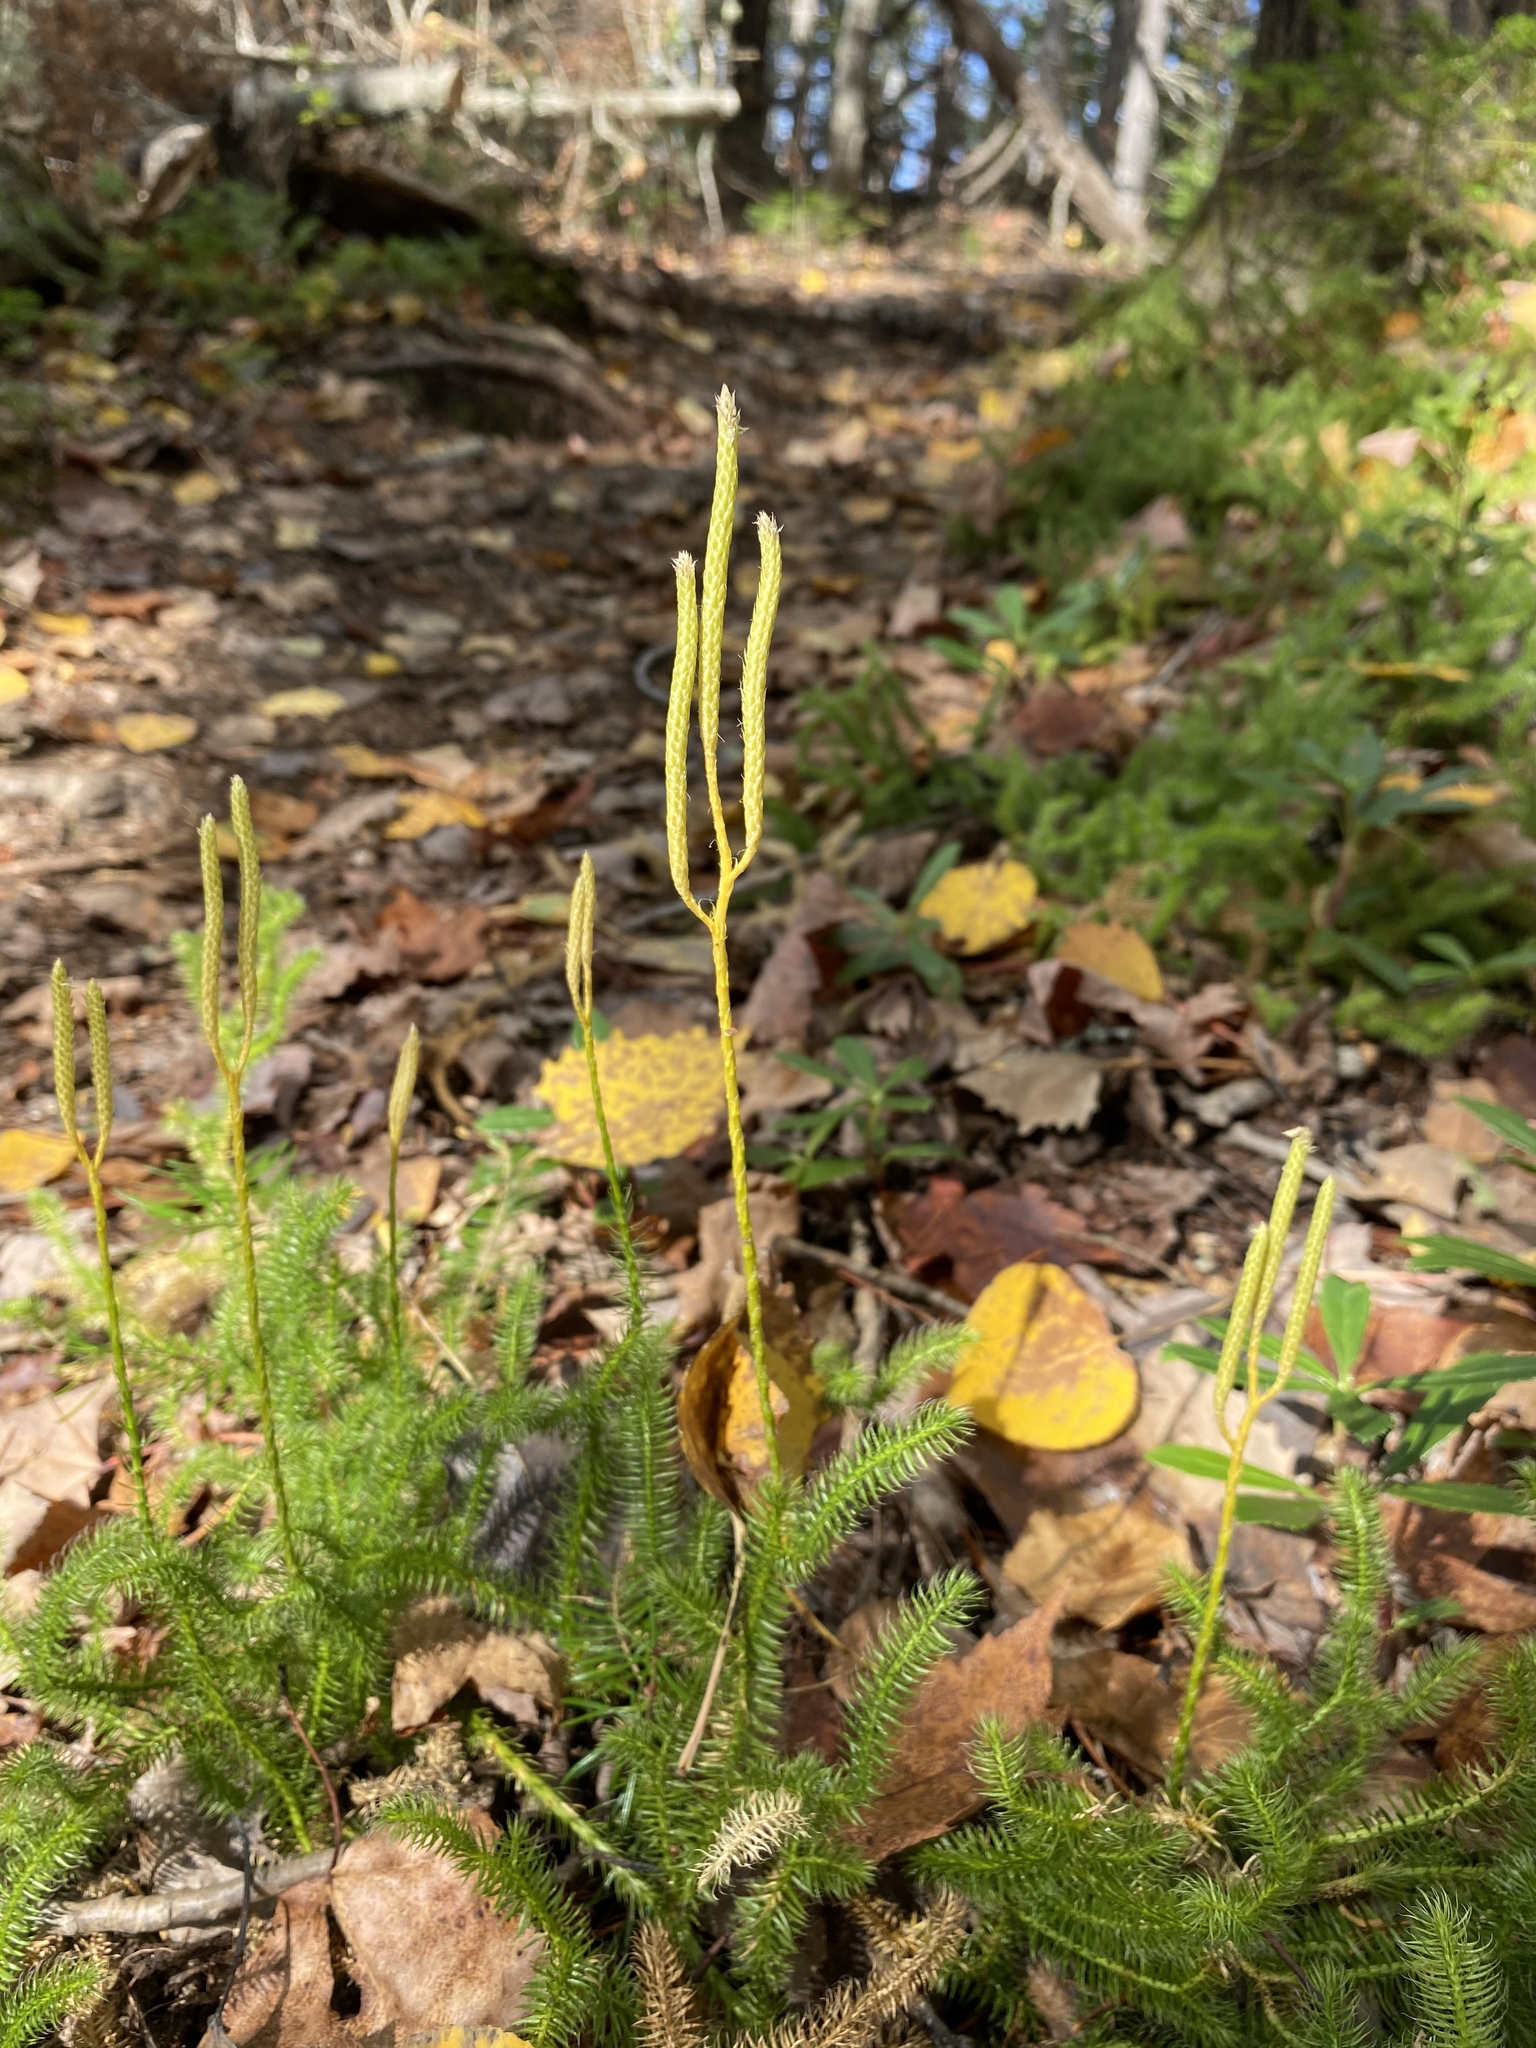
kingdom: Plantae
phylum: Tracheophyta
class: Lycopodiopsida
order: Lycopodiales
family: Lycopodiaceae
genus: Lycopodium
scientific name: Lycopodium clavatum
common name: Stag's-horn clubmoss
